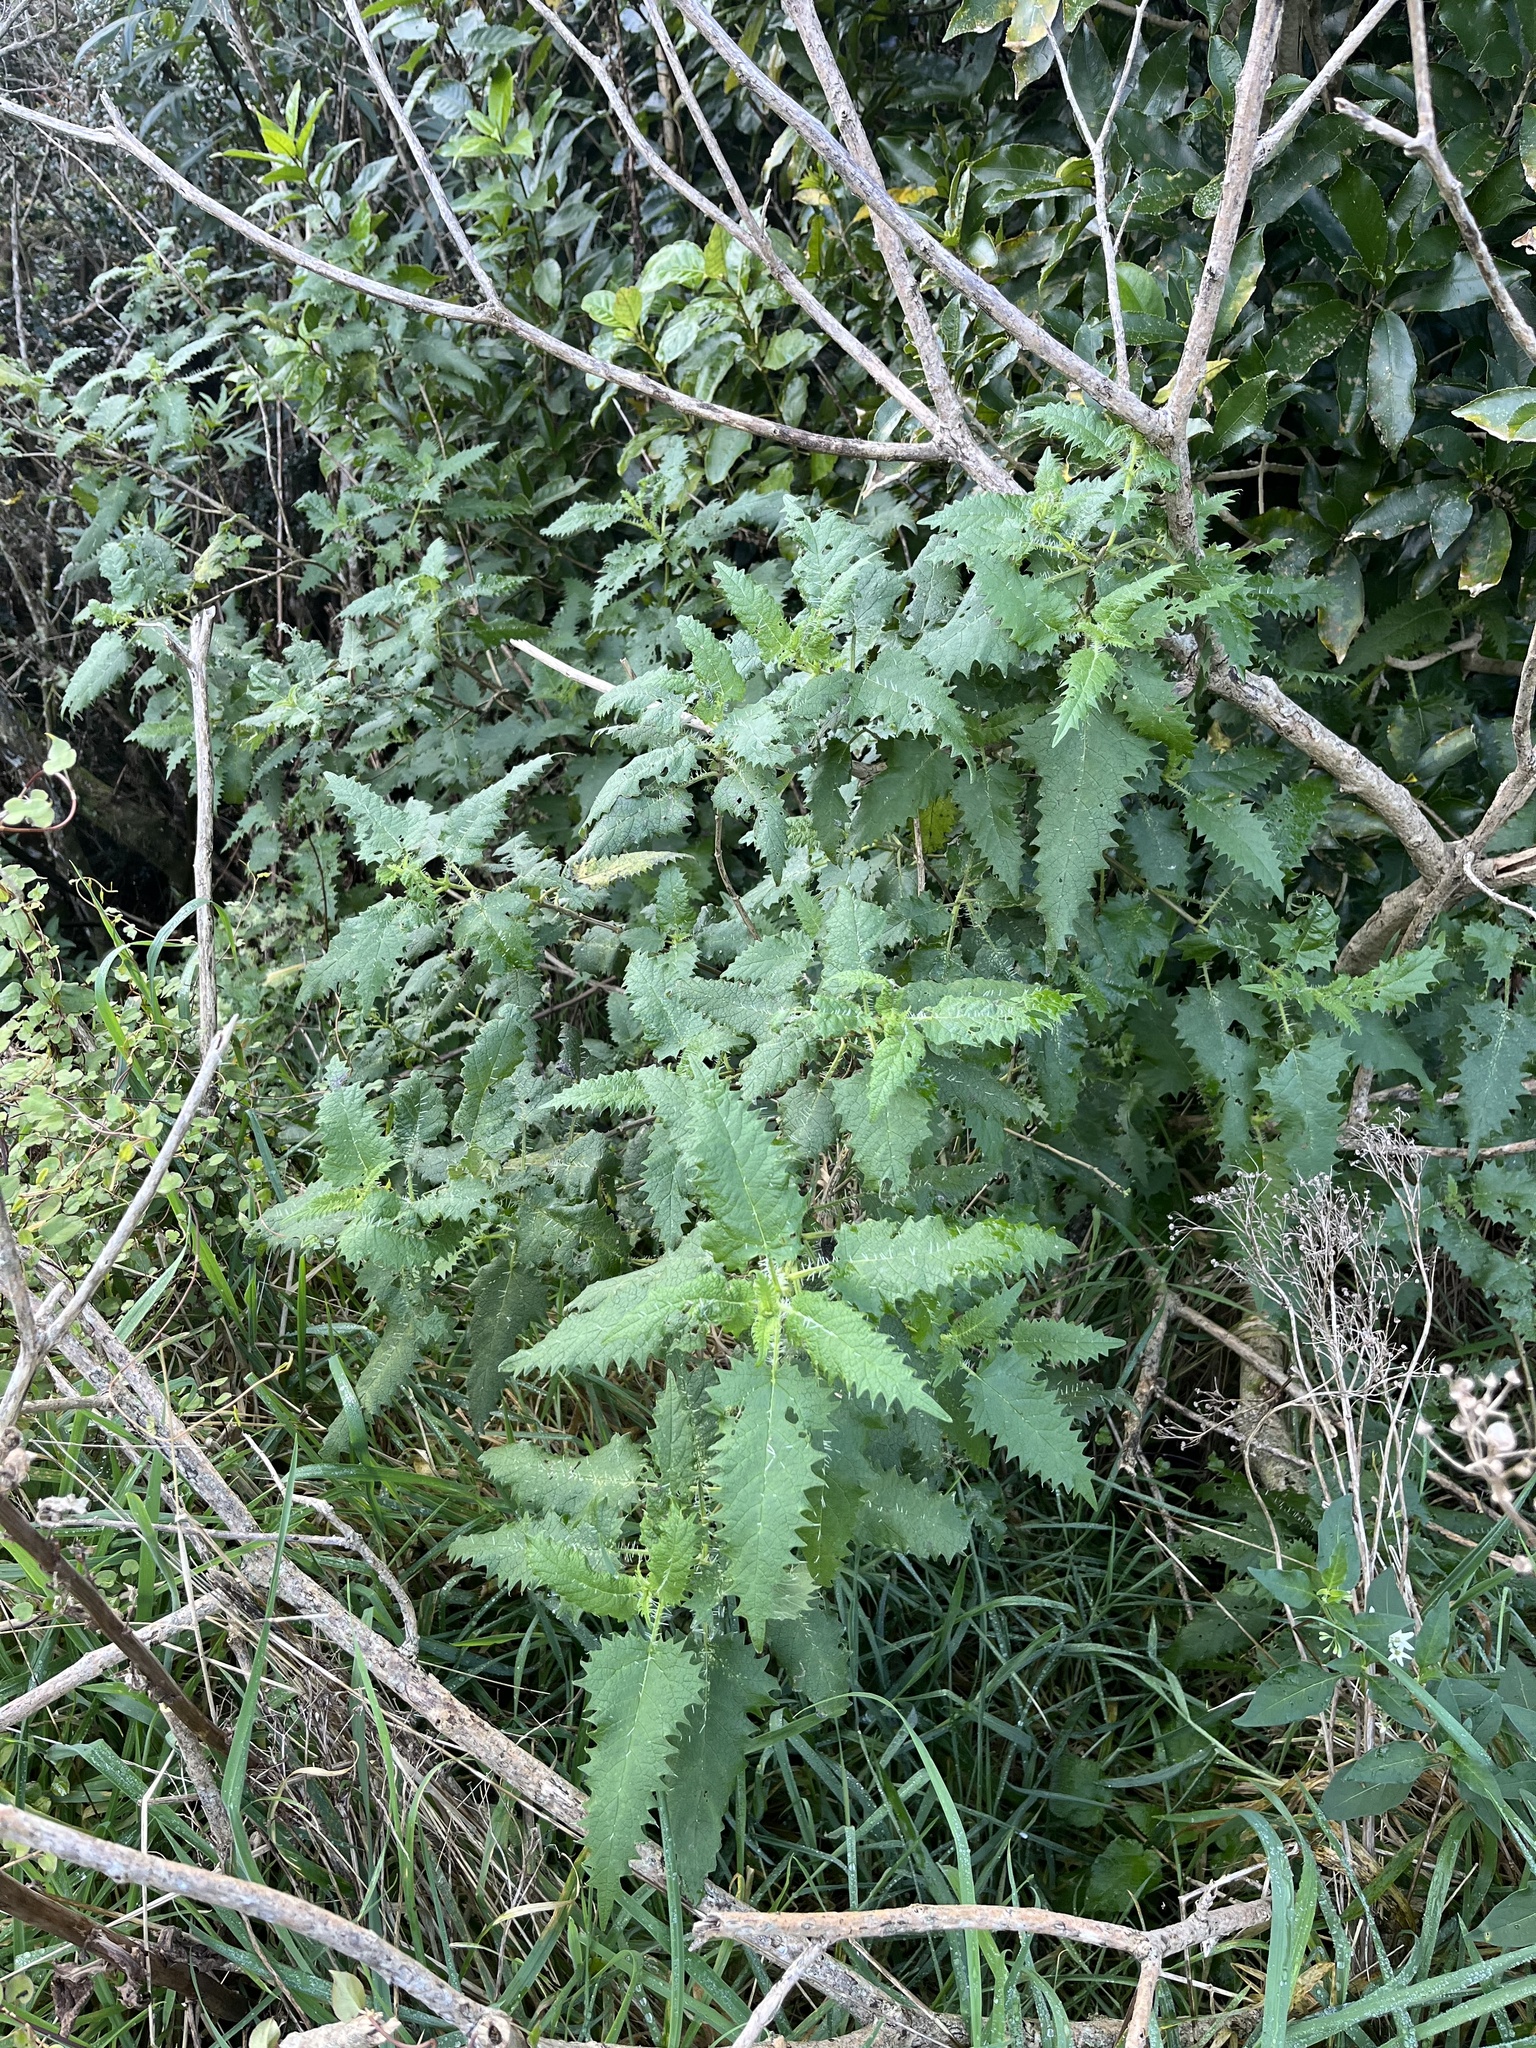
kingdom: Plantae
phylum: Tracheophyta
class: Magnoliopsida
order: Rosales
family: Urticaceae
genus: Urtica
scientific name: Urtica ferox
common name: Tree nettle
